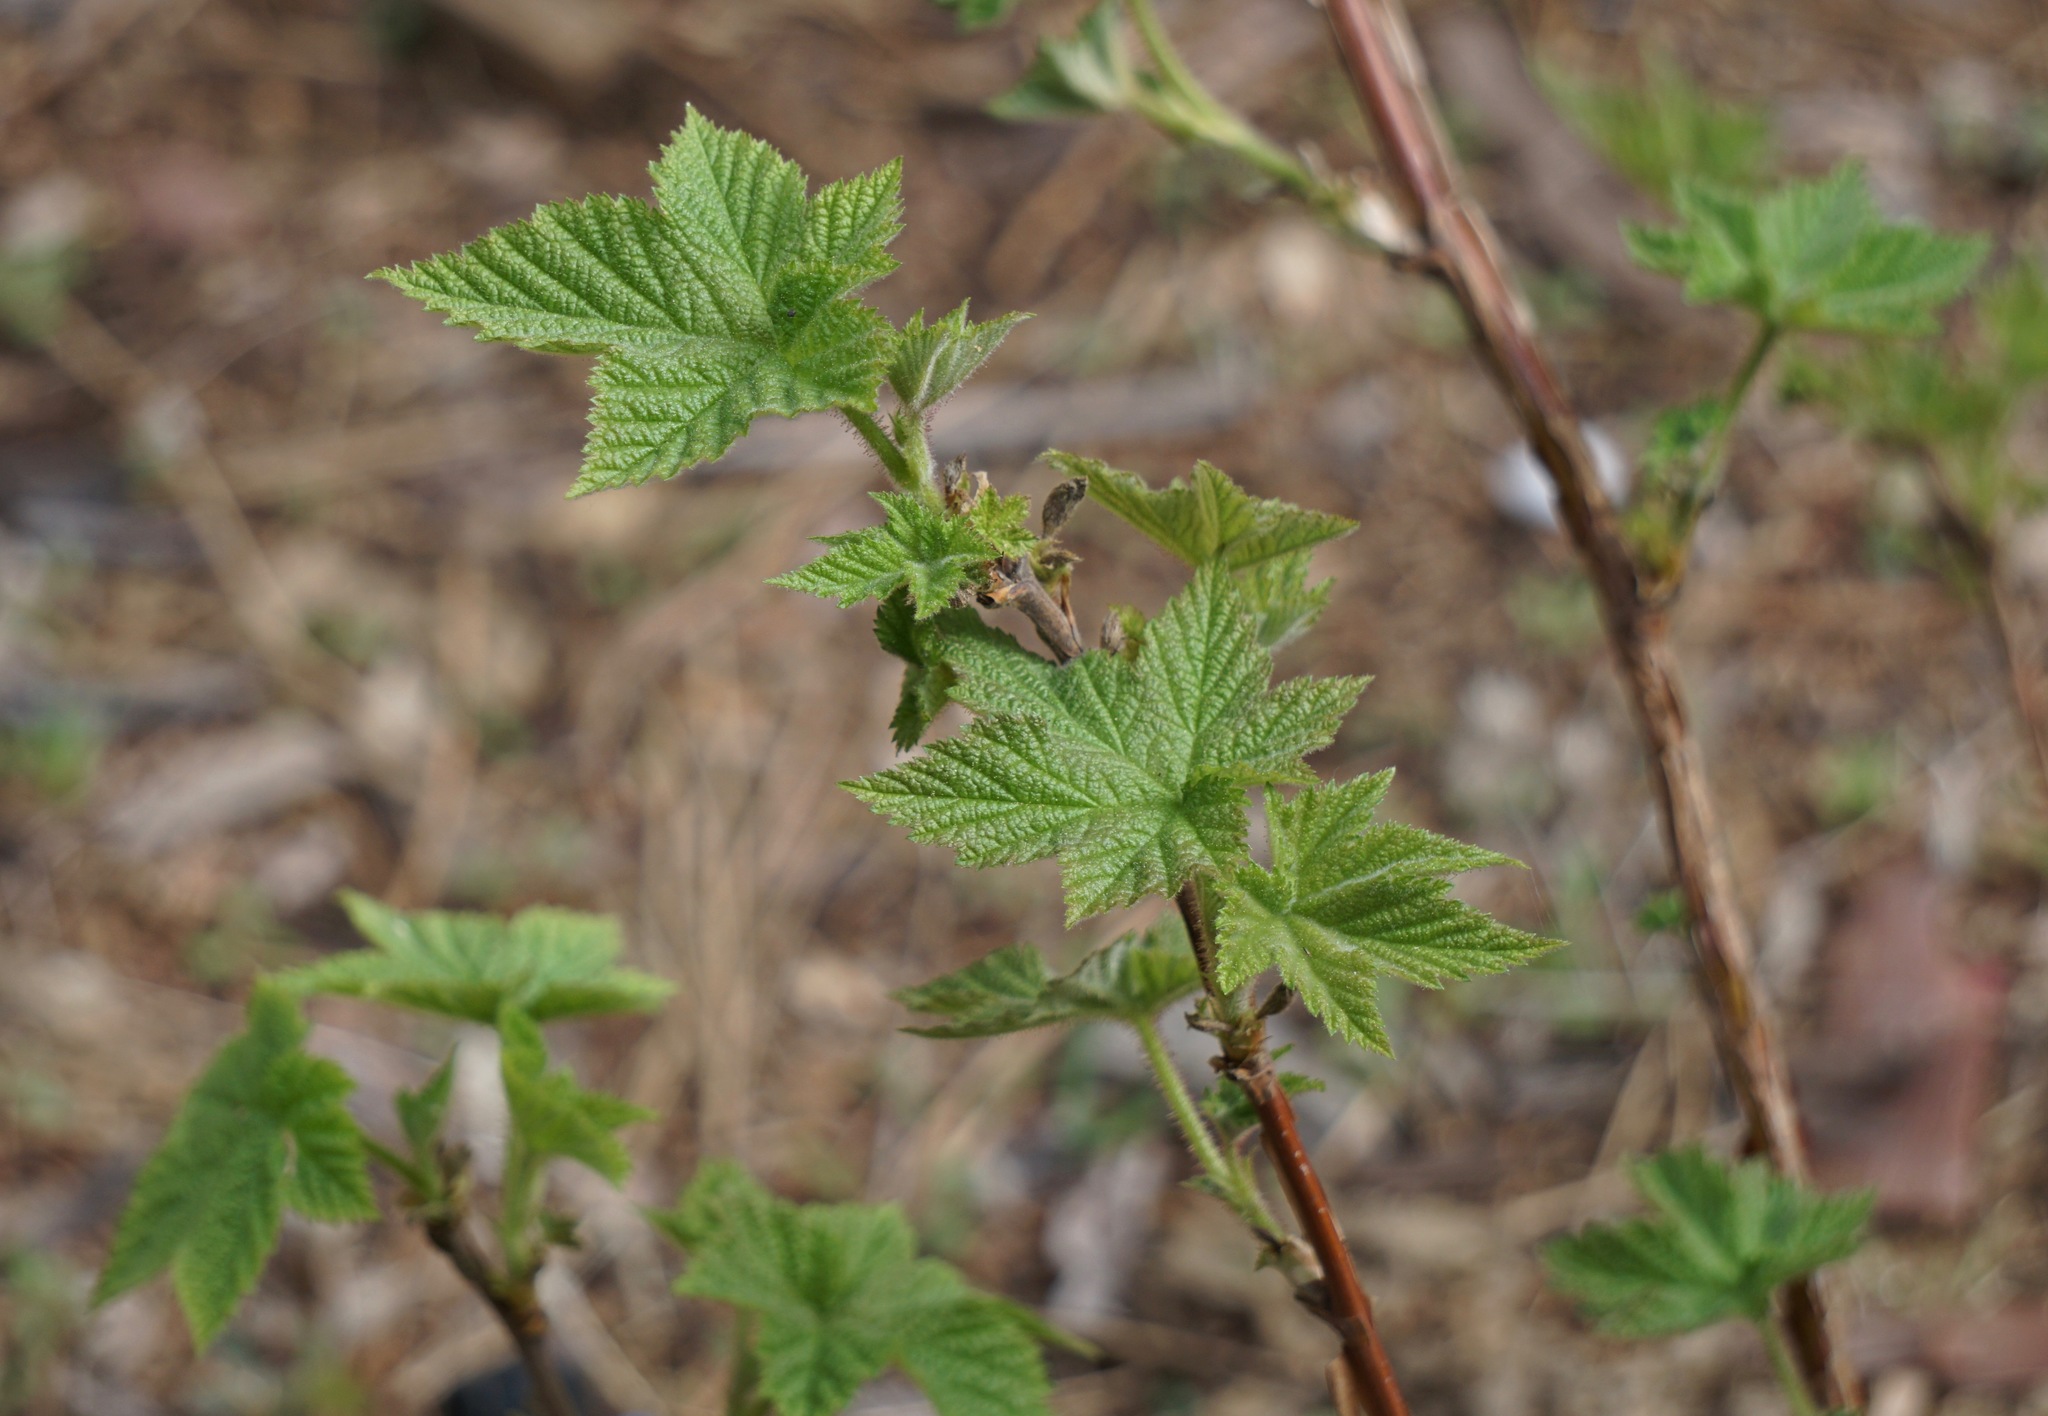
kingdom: Plantae
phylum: Tracheophyta
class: Magnoliopsida
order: Rosales
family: Rosaceae
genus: Rubus
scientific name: Rubus parviflorus
